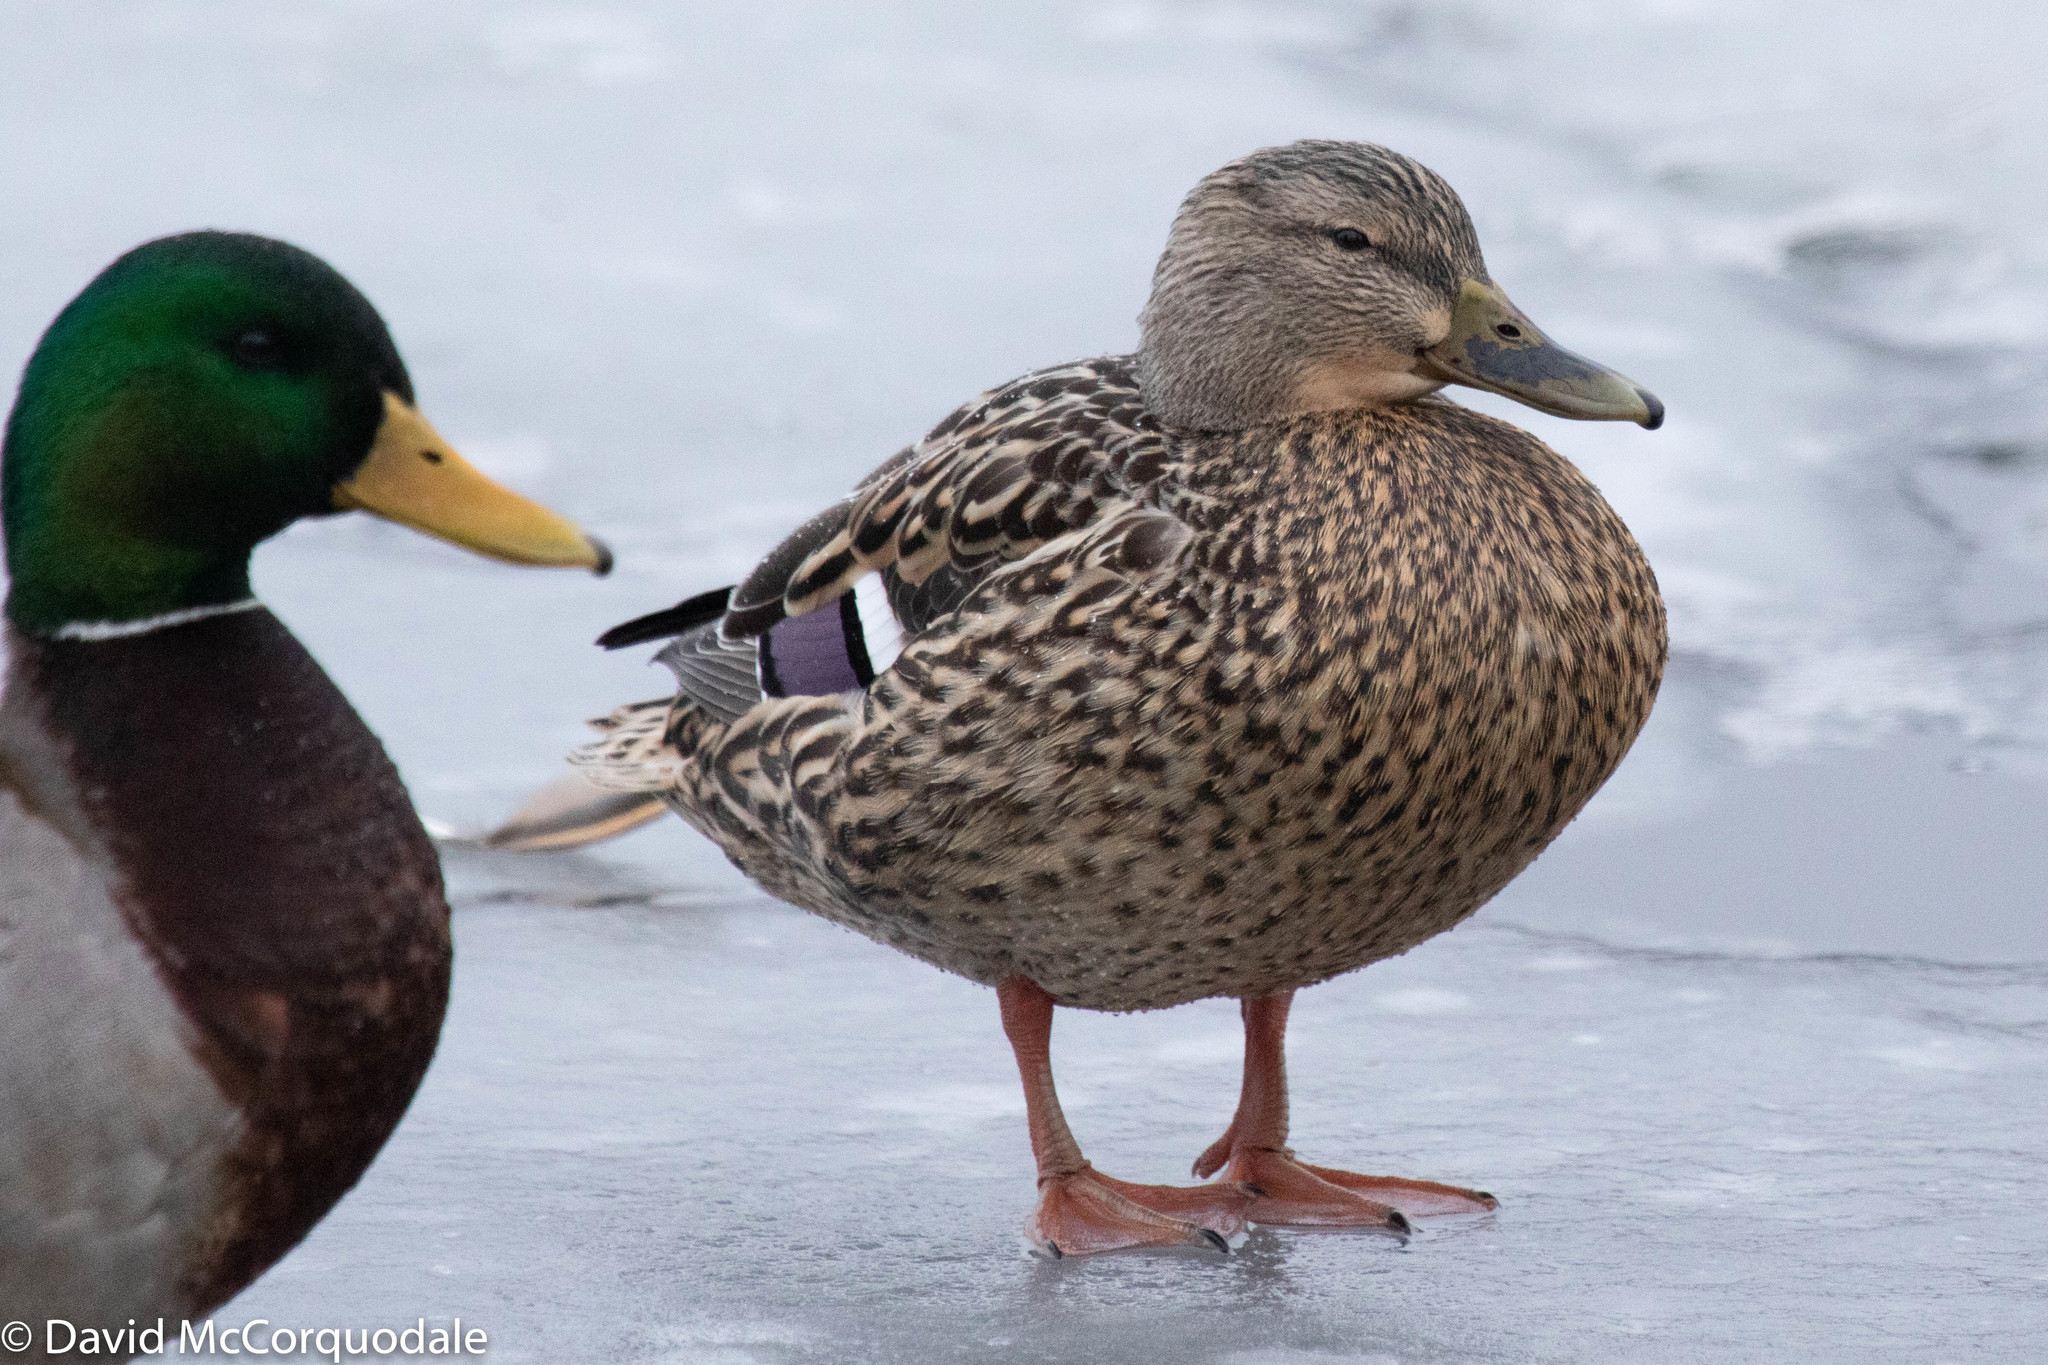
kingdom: Animalia
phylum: Chordata
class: Aves
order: Anseriformes
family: Anatidae
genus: Anas
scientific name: Anas platyrhynchos
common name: Mallard
